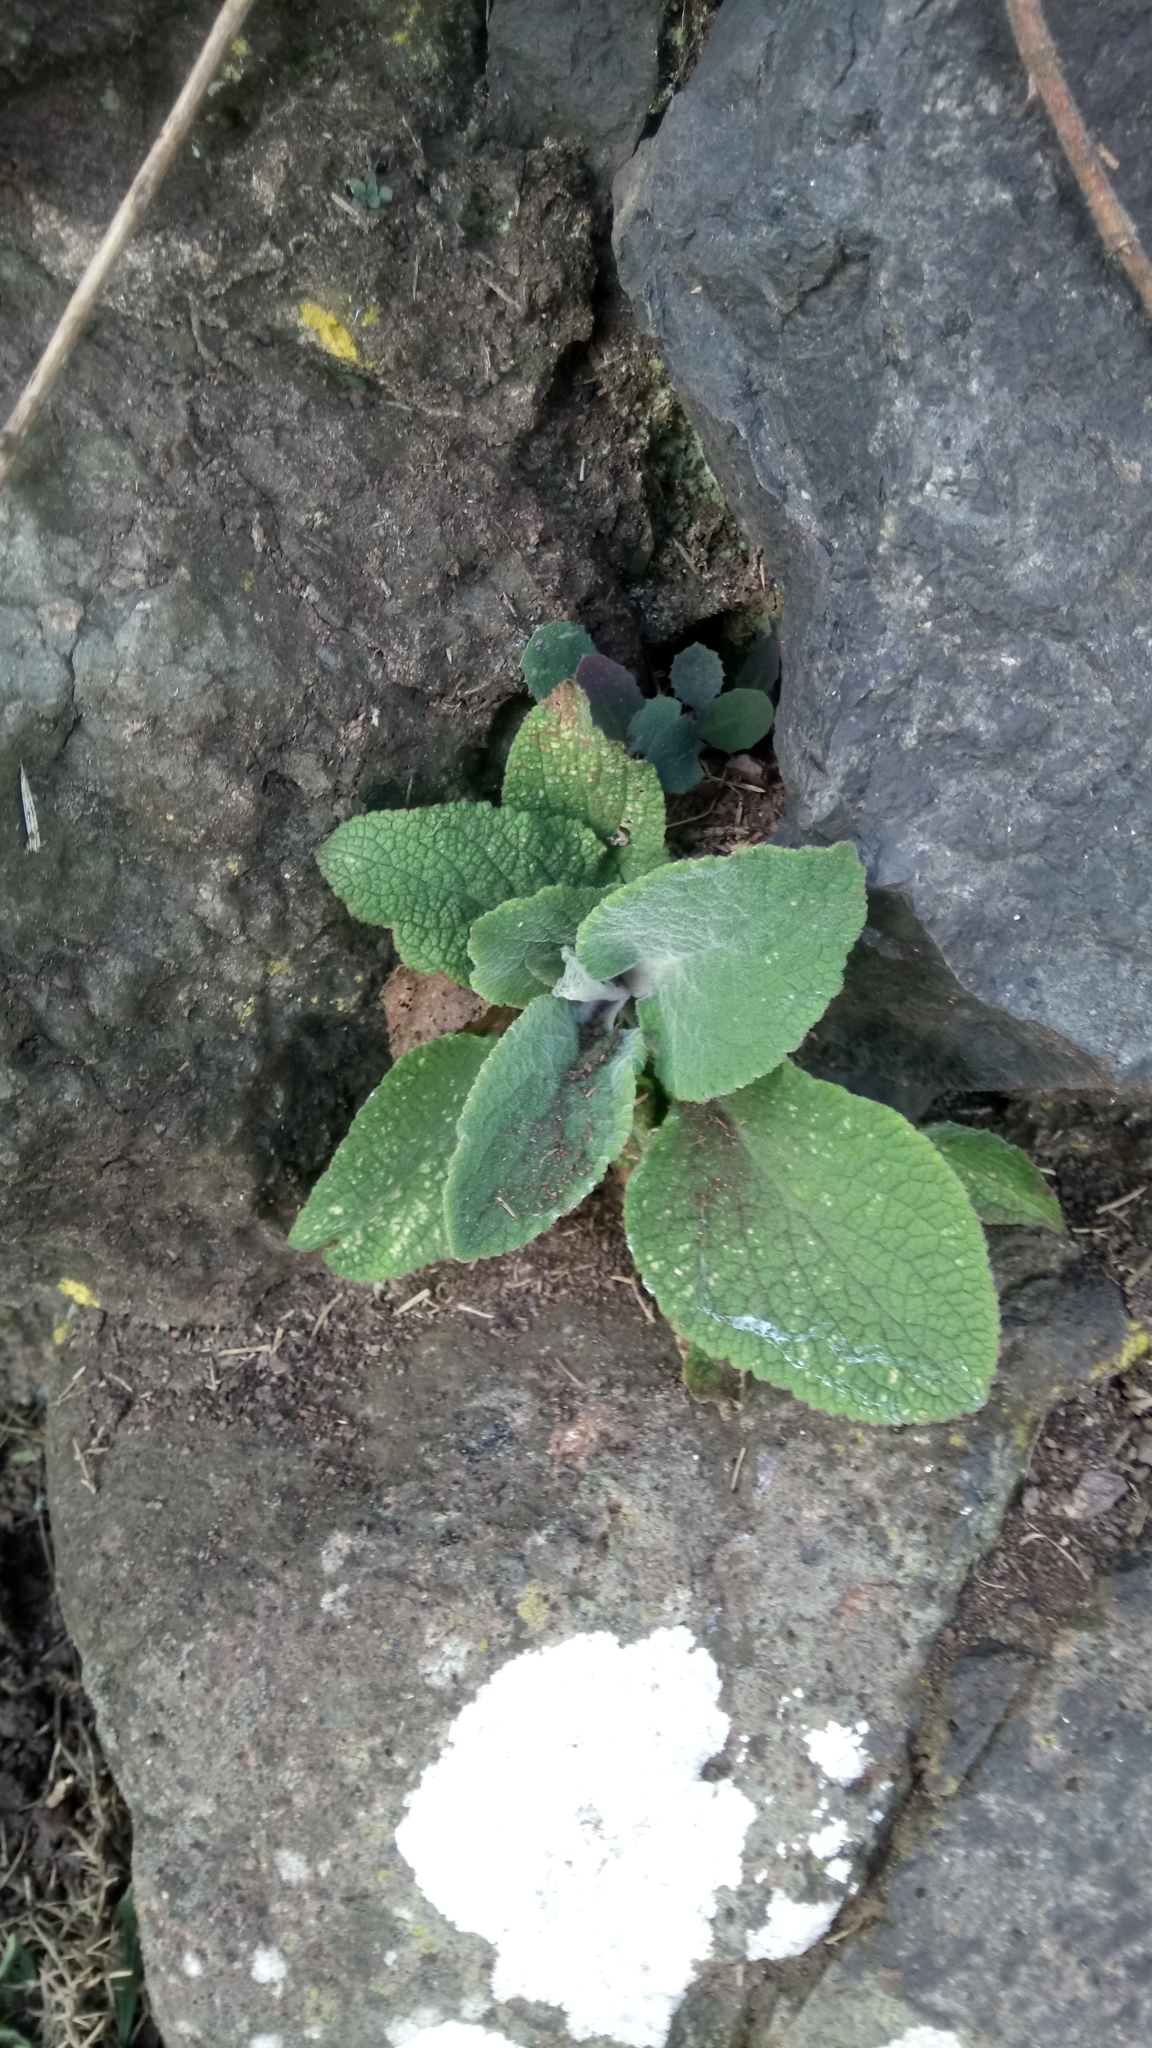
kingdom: Plantae
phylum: Tracheophyta
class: Magnoliopsida
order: Lamiales
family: Plantaginaceae
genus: Digitalis
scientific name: Digitalis purpurea
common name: Foxglove
